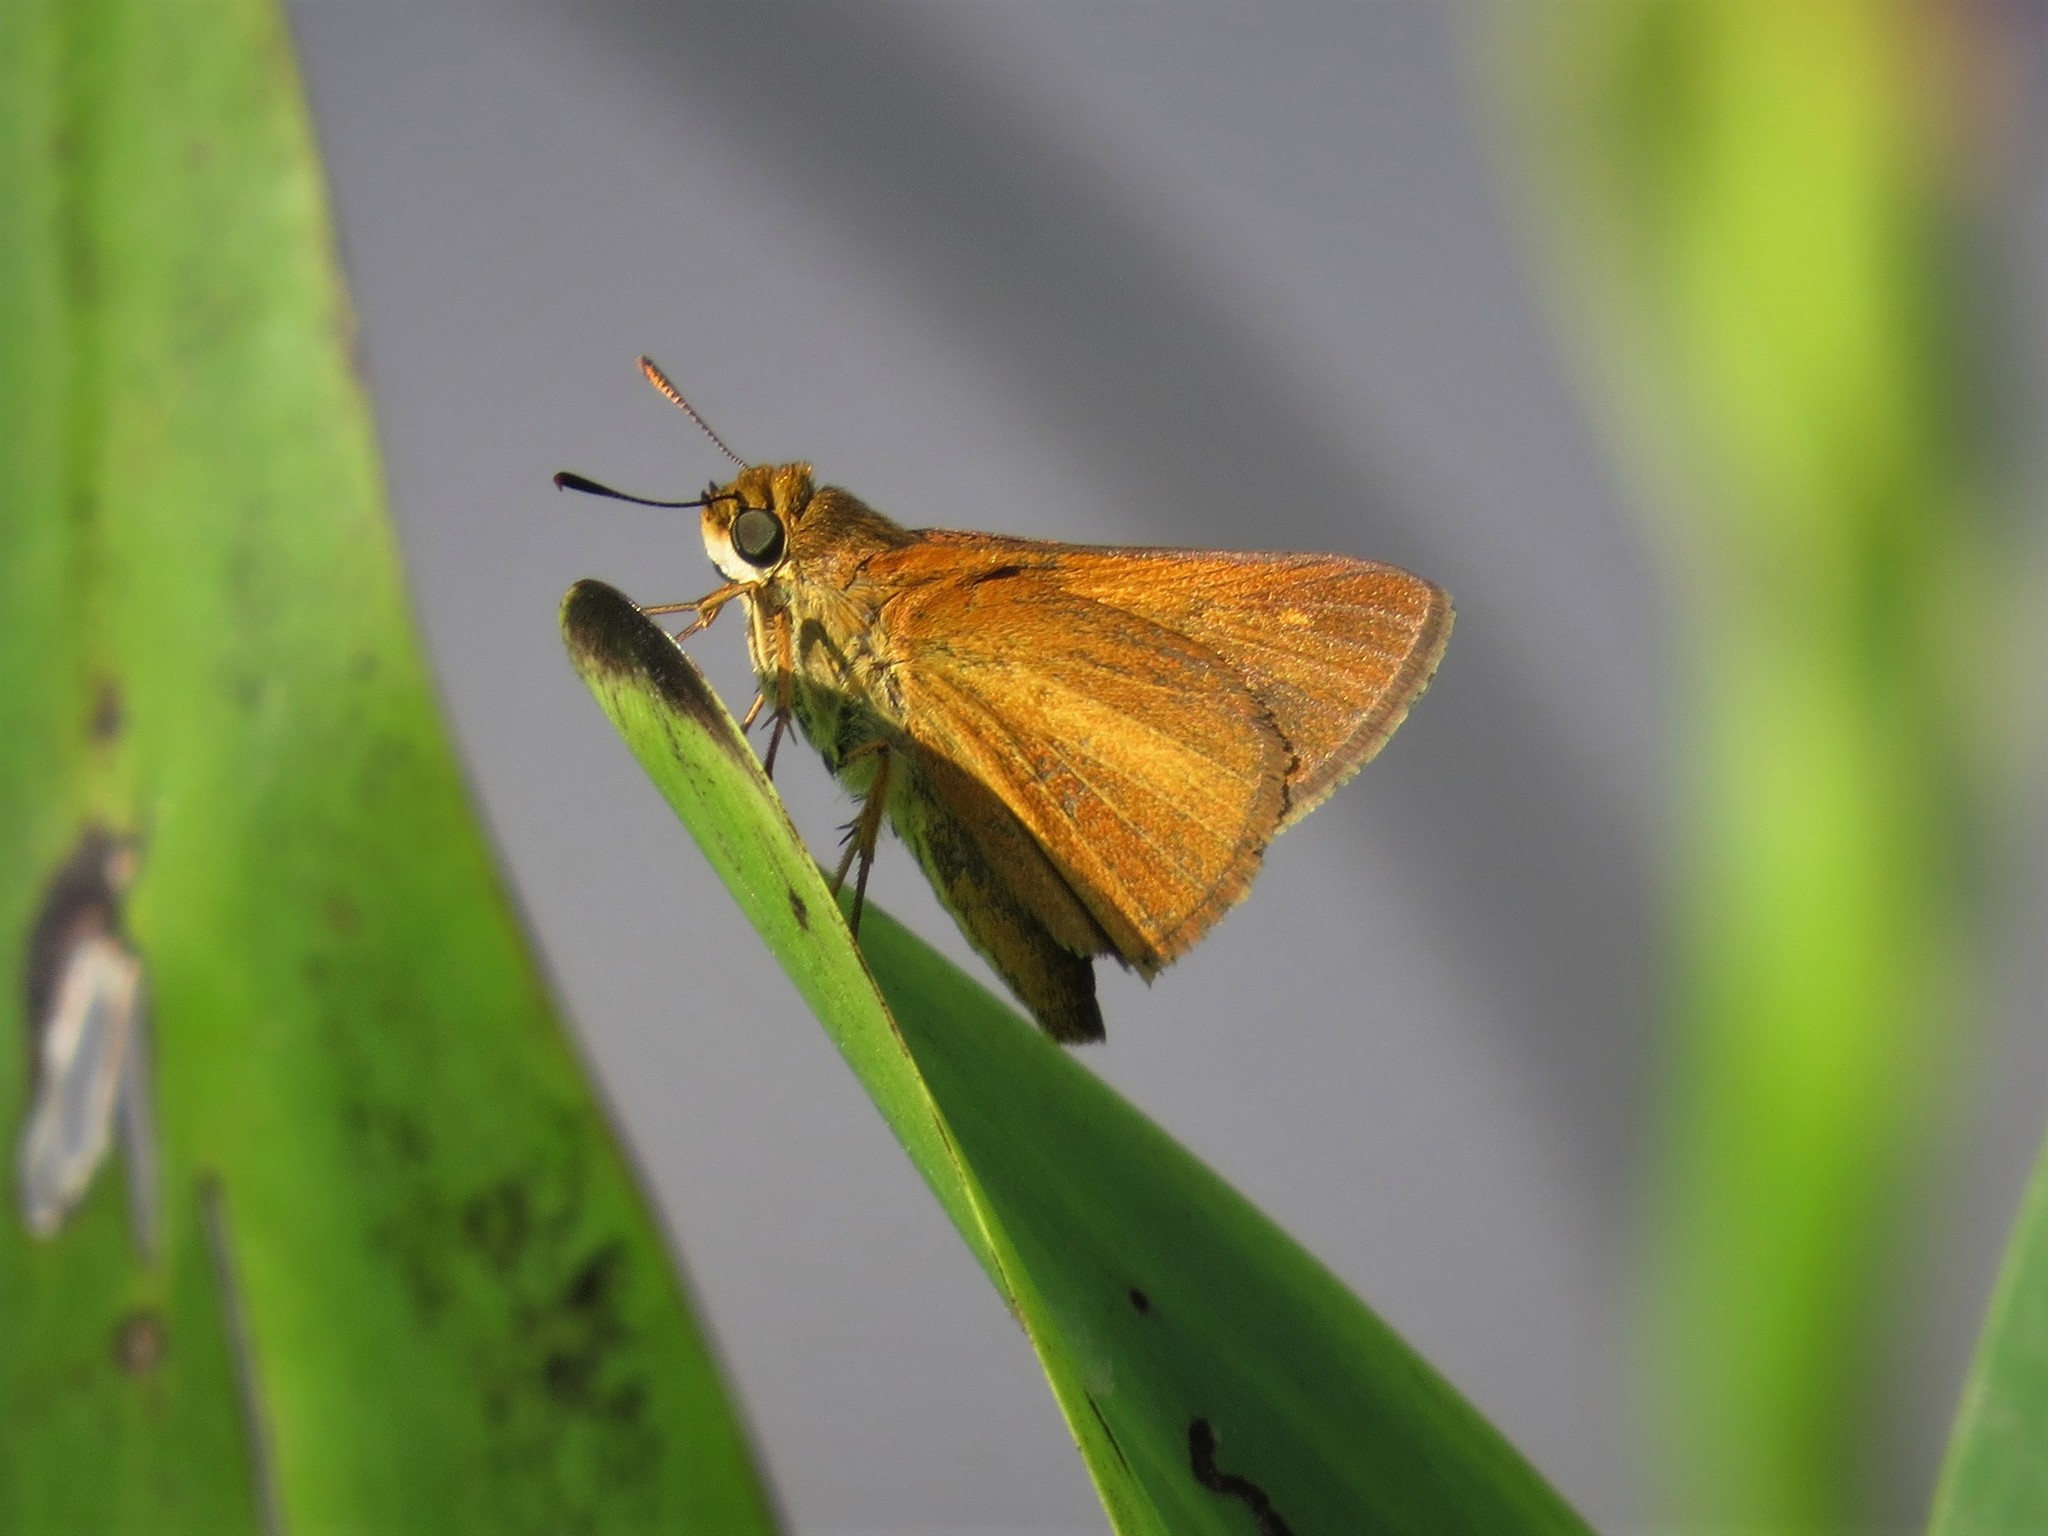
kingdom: Animalia
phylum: Arthropoda
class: Insecta
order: Lepidoptera
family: Hesperiidae
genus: Euphyes
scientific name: Euphyes dion
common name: Dion skipper
